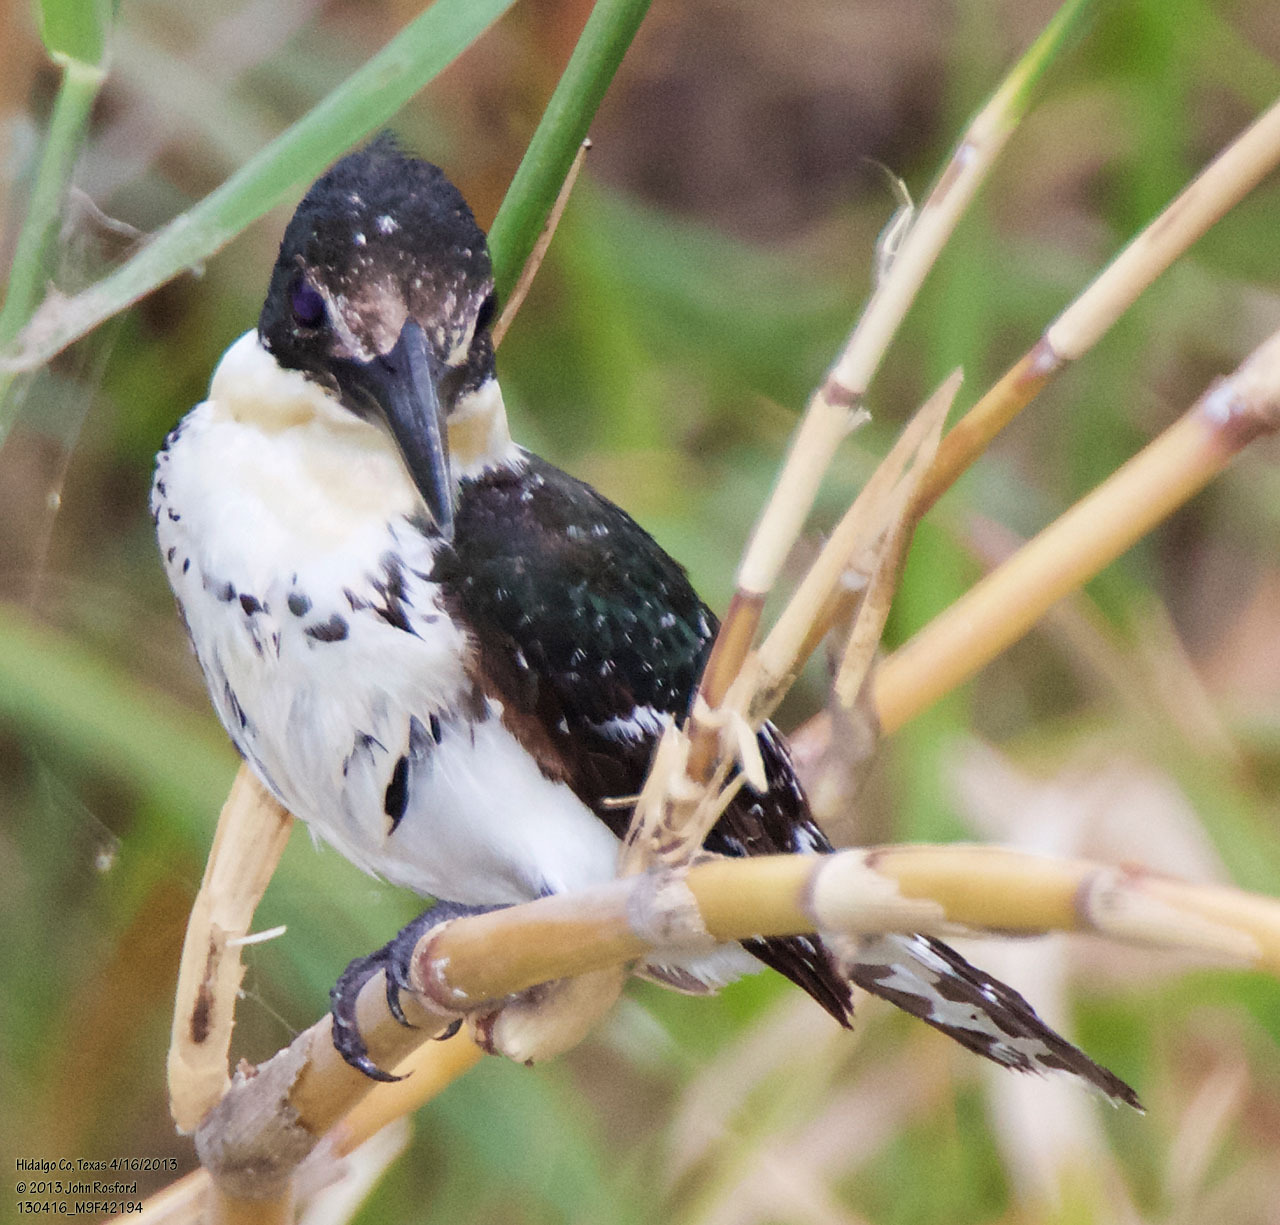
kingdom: Animalia
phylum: Chordata
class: Aves
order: Coraciiformes
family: Alcedinidae
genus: Chloroceryle
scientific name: Chloroceryle americana
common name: Green kingfisher
